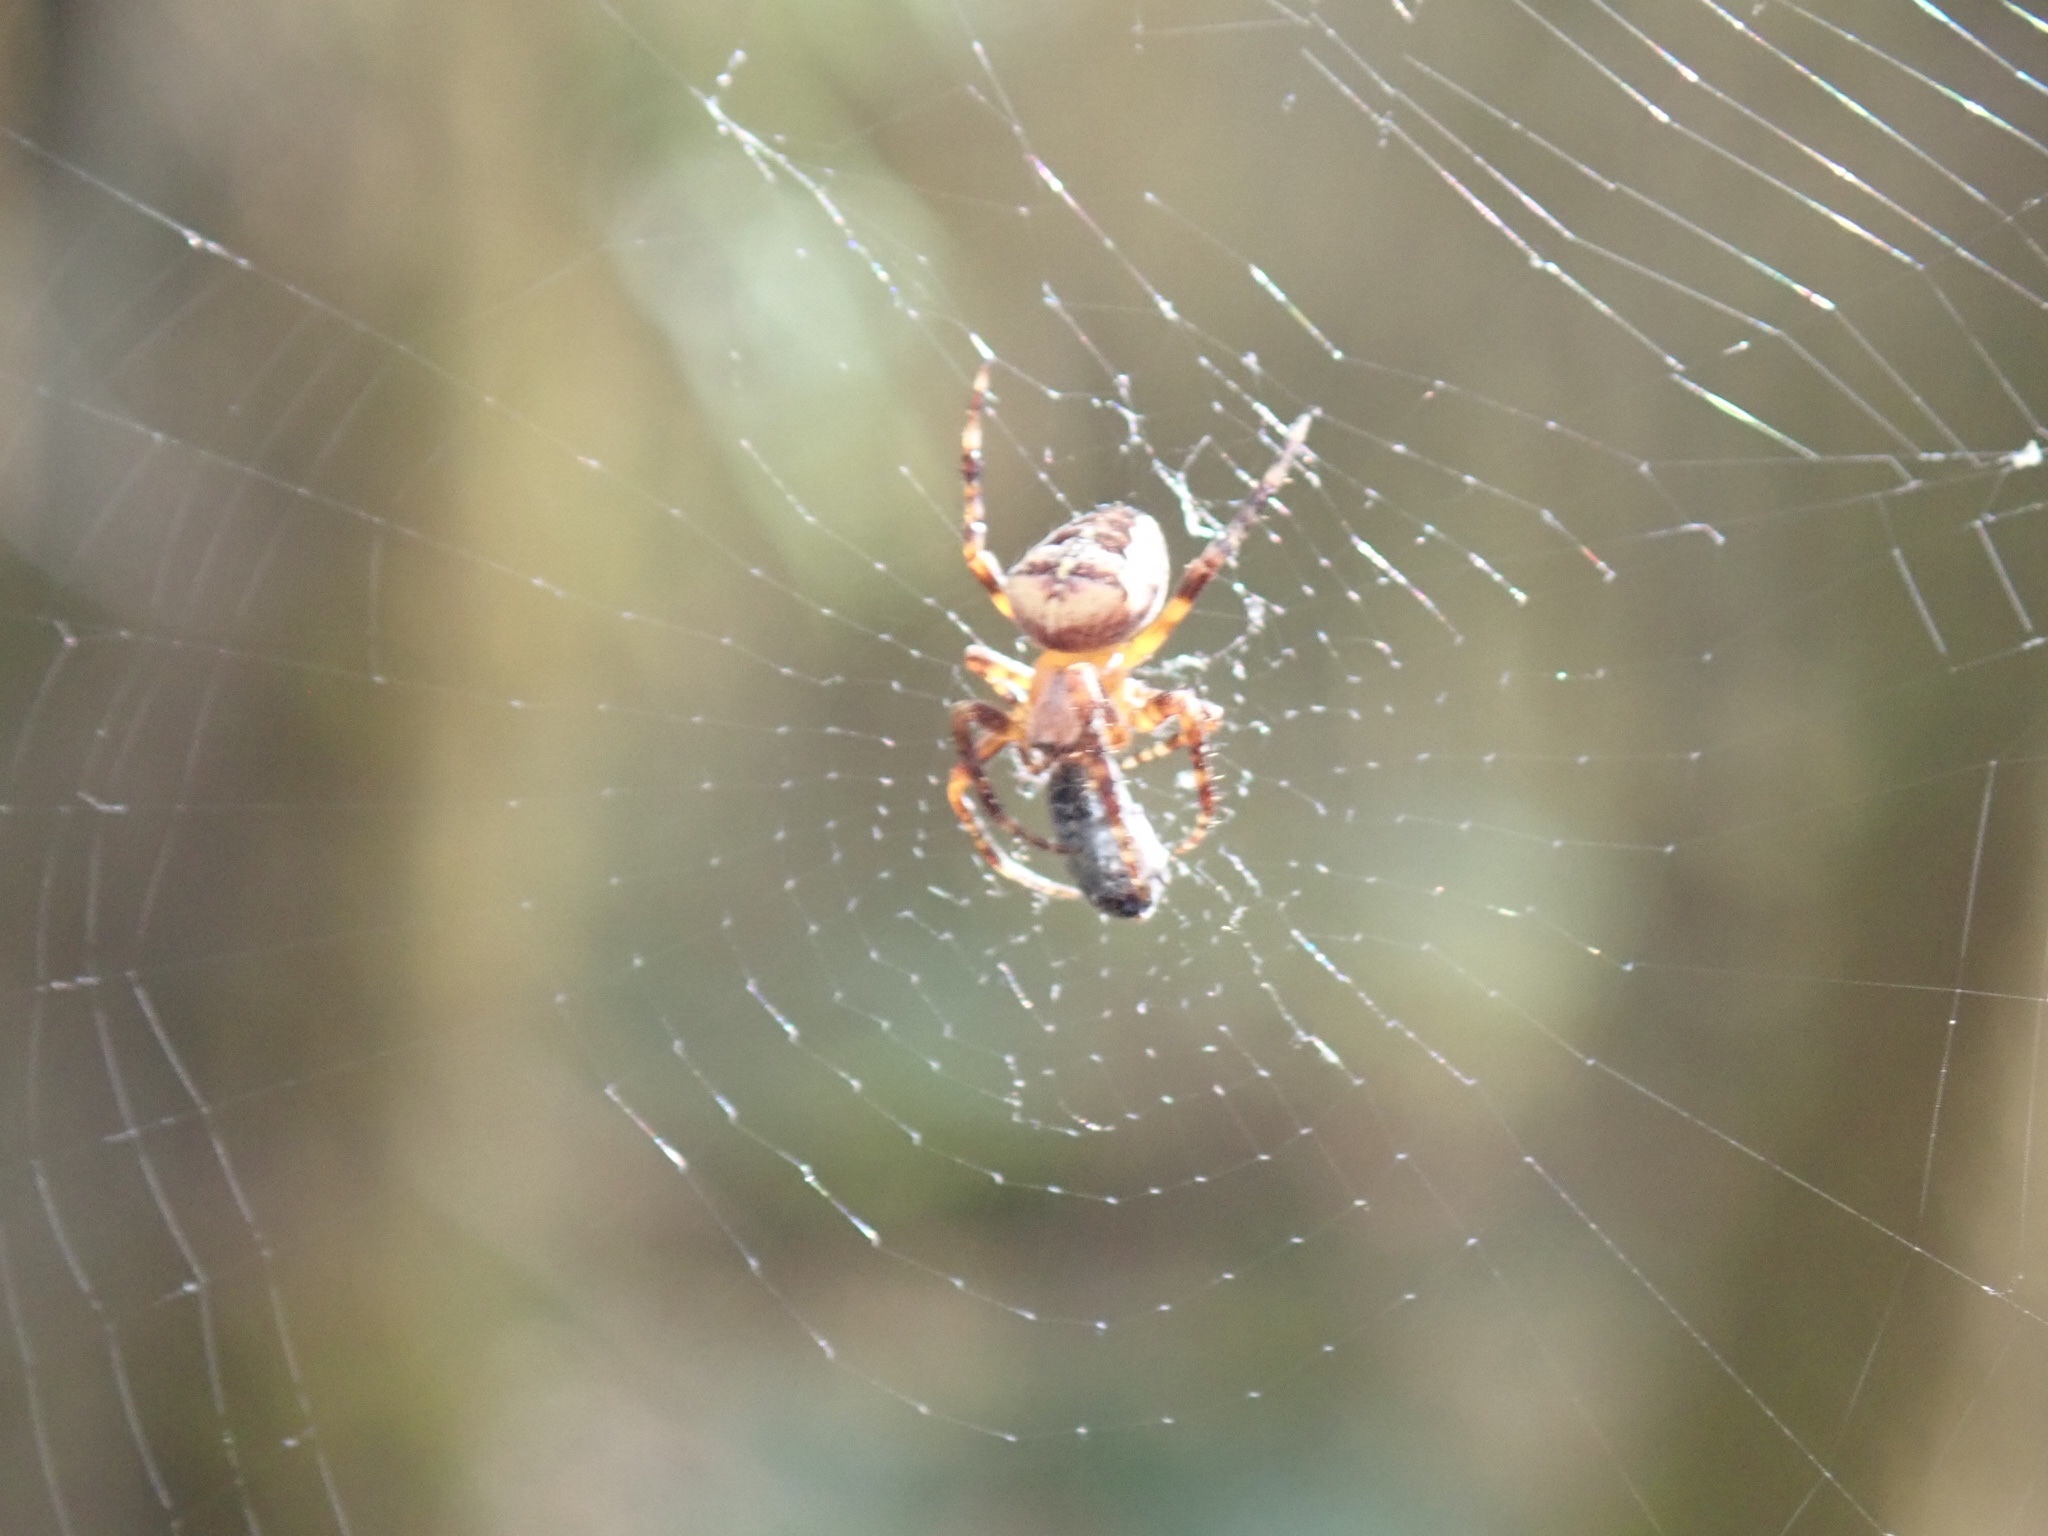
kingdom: Animalia
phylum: Arthropoda
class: Arachnida
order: Araneae
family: Araneidae
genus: Araneus
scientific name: Araneus diadematus
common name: Cross orbweaver
